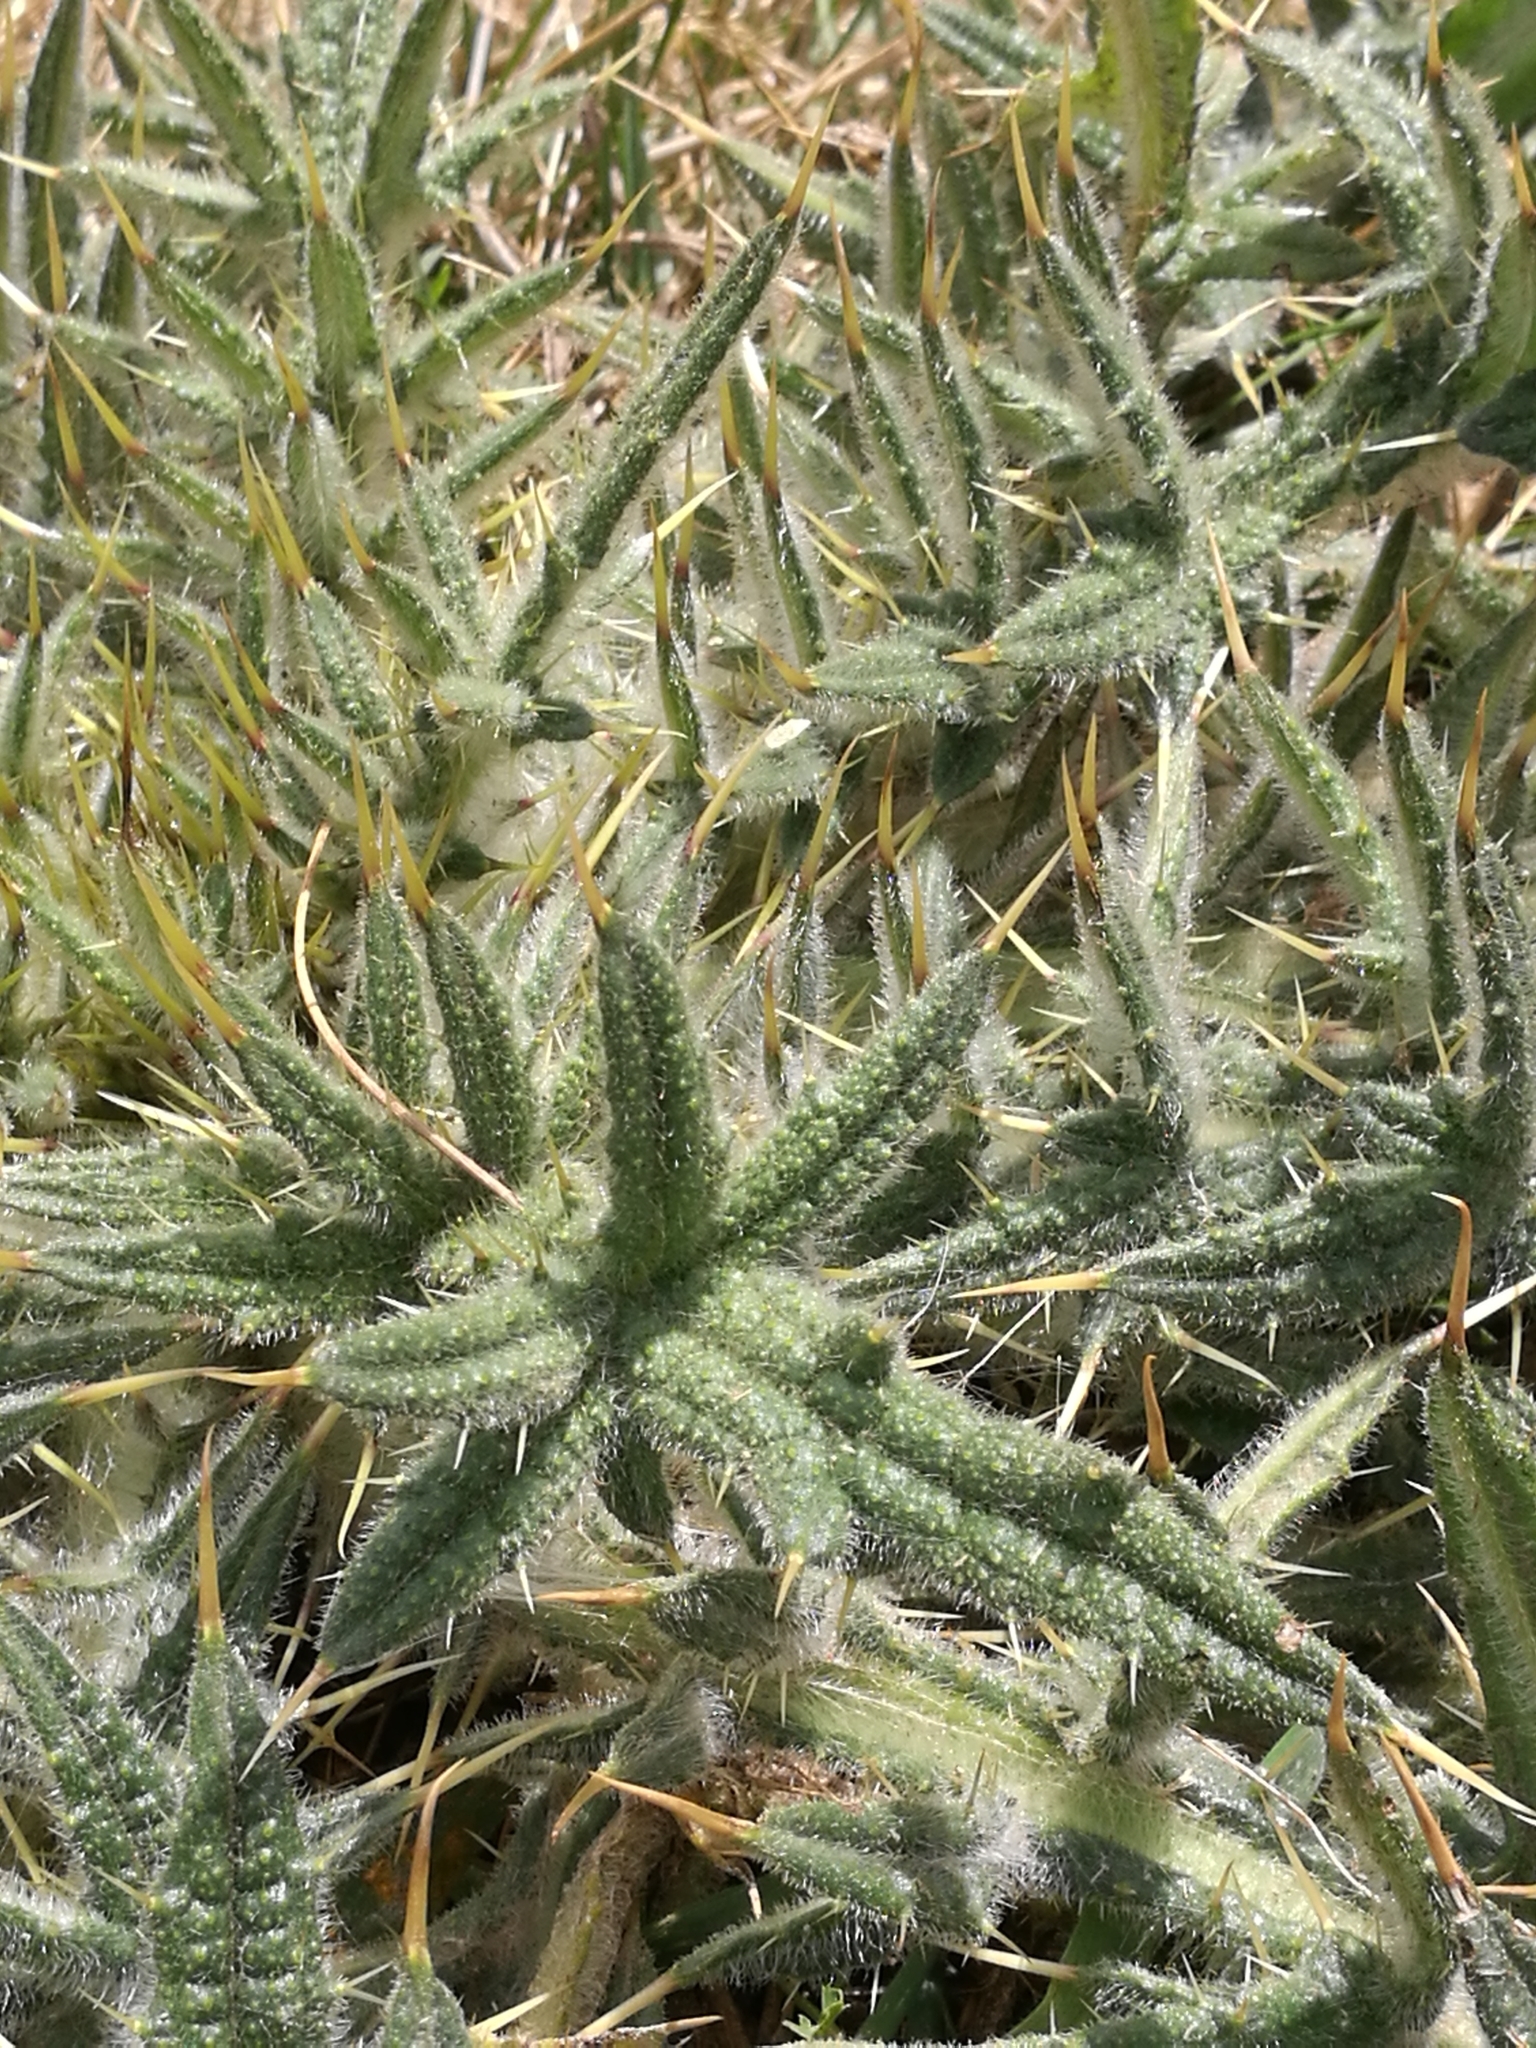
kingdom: Plantae
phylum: Tracheophyta
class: Magnoliopsida
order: Asterales
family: Asteraceae
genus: Cirsium
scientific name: Cirsium vulgare
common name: Bull thistle
